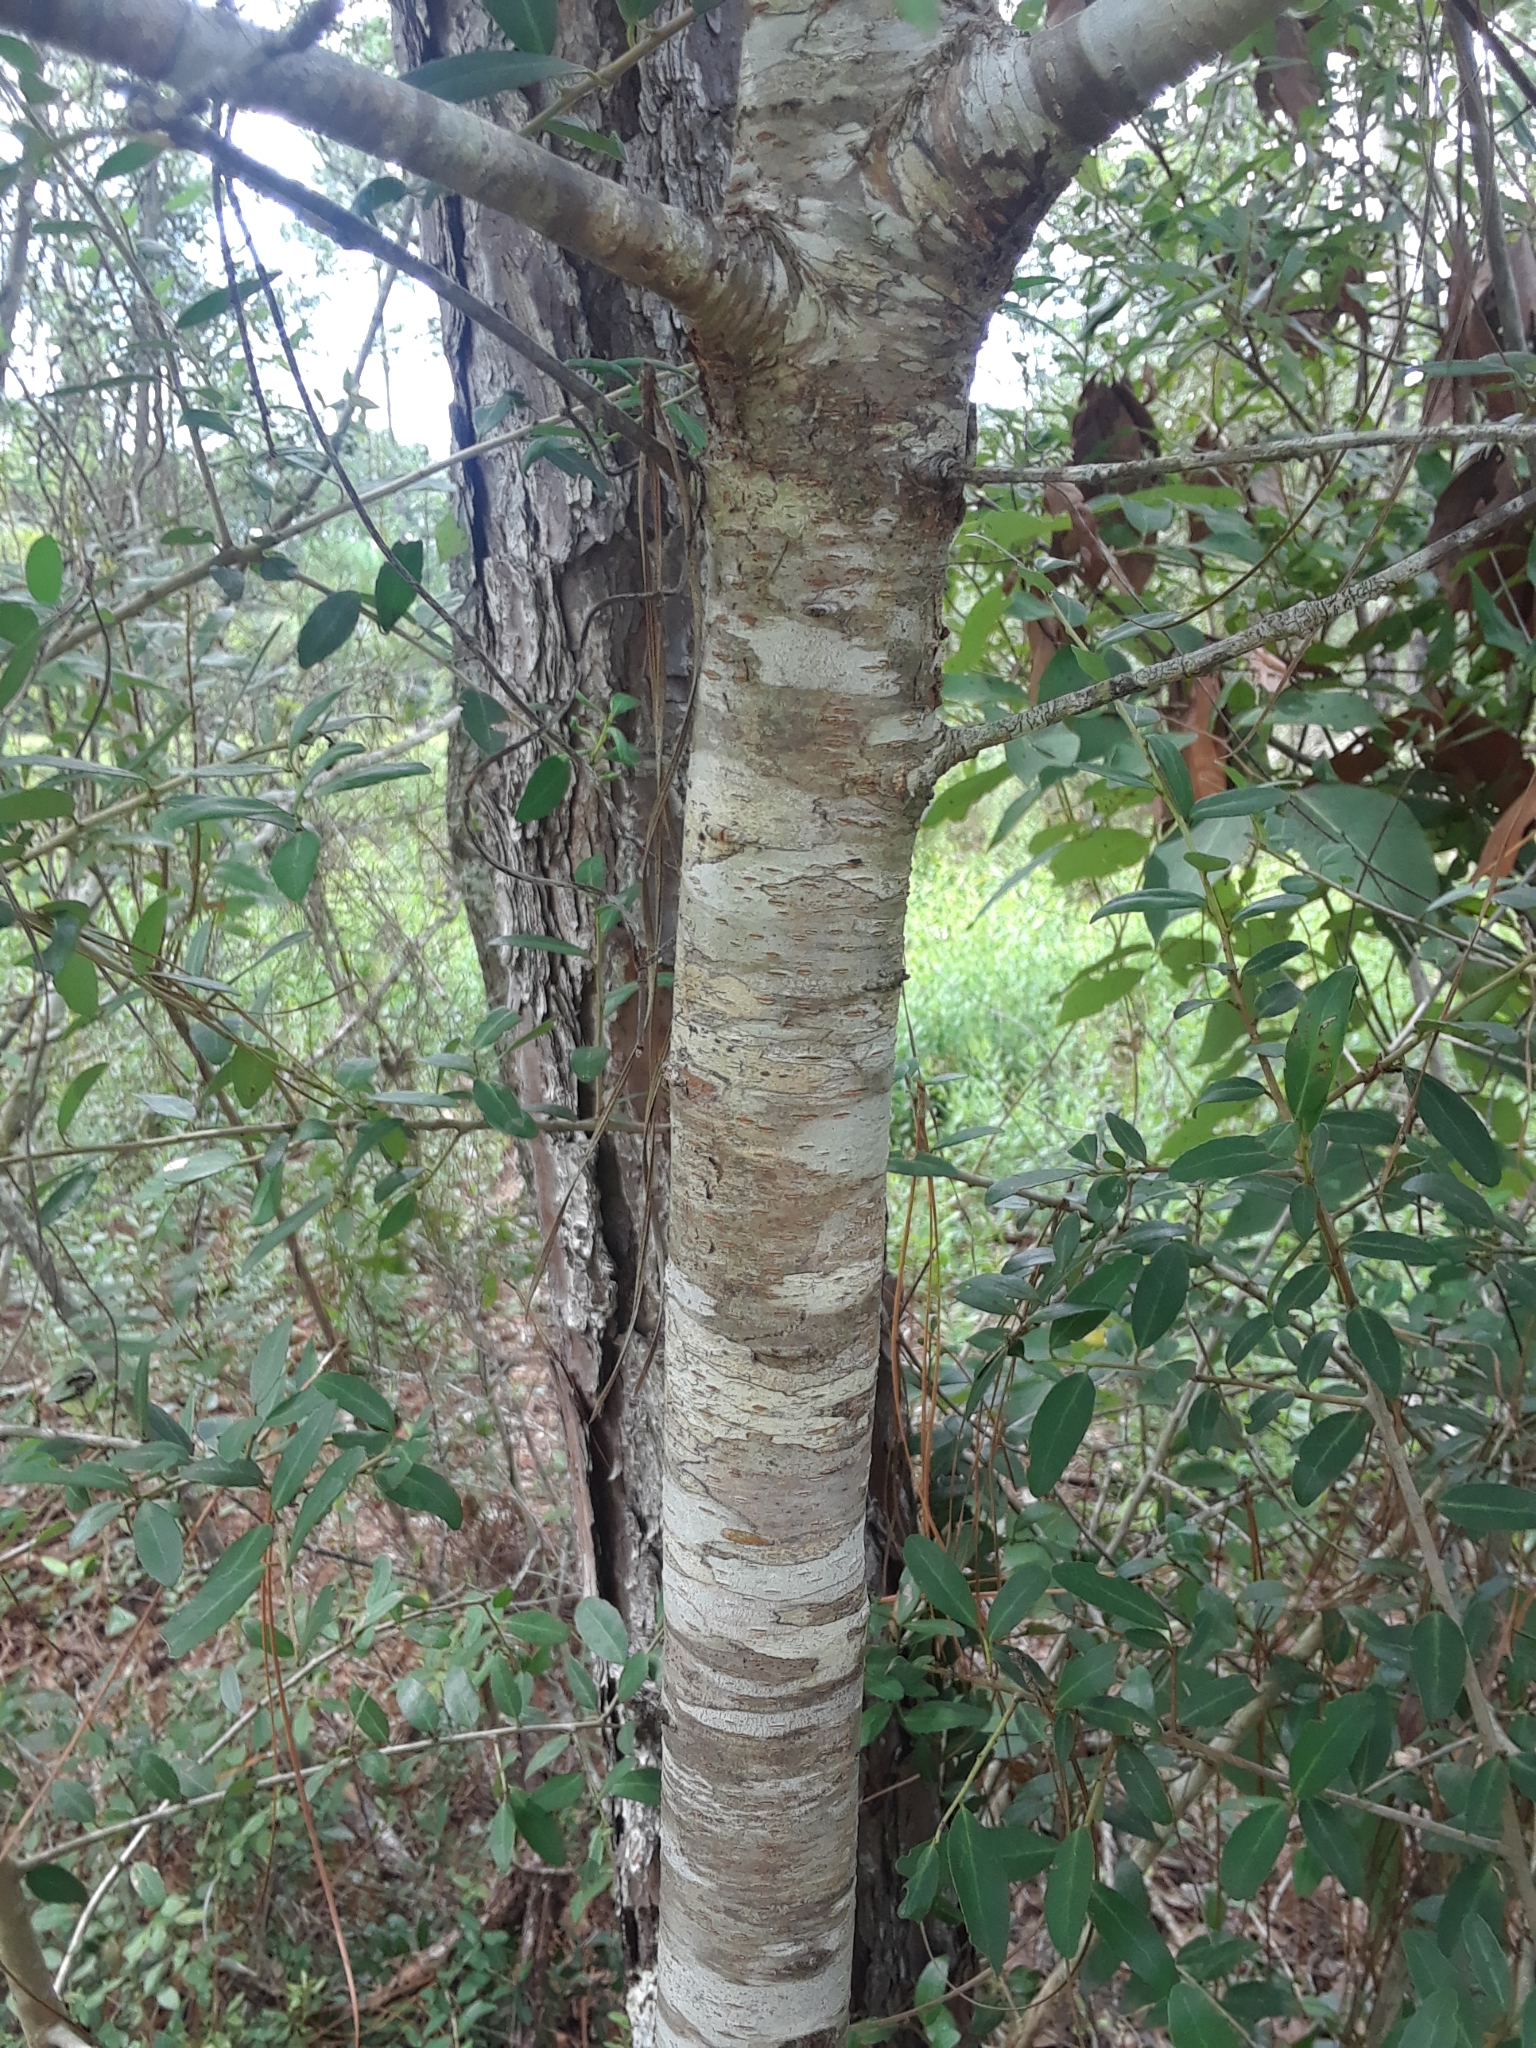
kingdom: Plantae
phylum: Tracheophyta
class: Magnoliopsida
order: Rosales
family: Rosaceae
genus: Prunus
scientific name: Prunus serotina
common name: Black cherry
